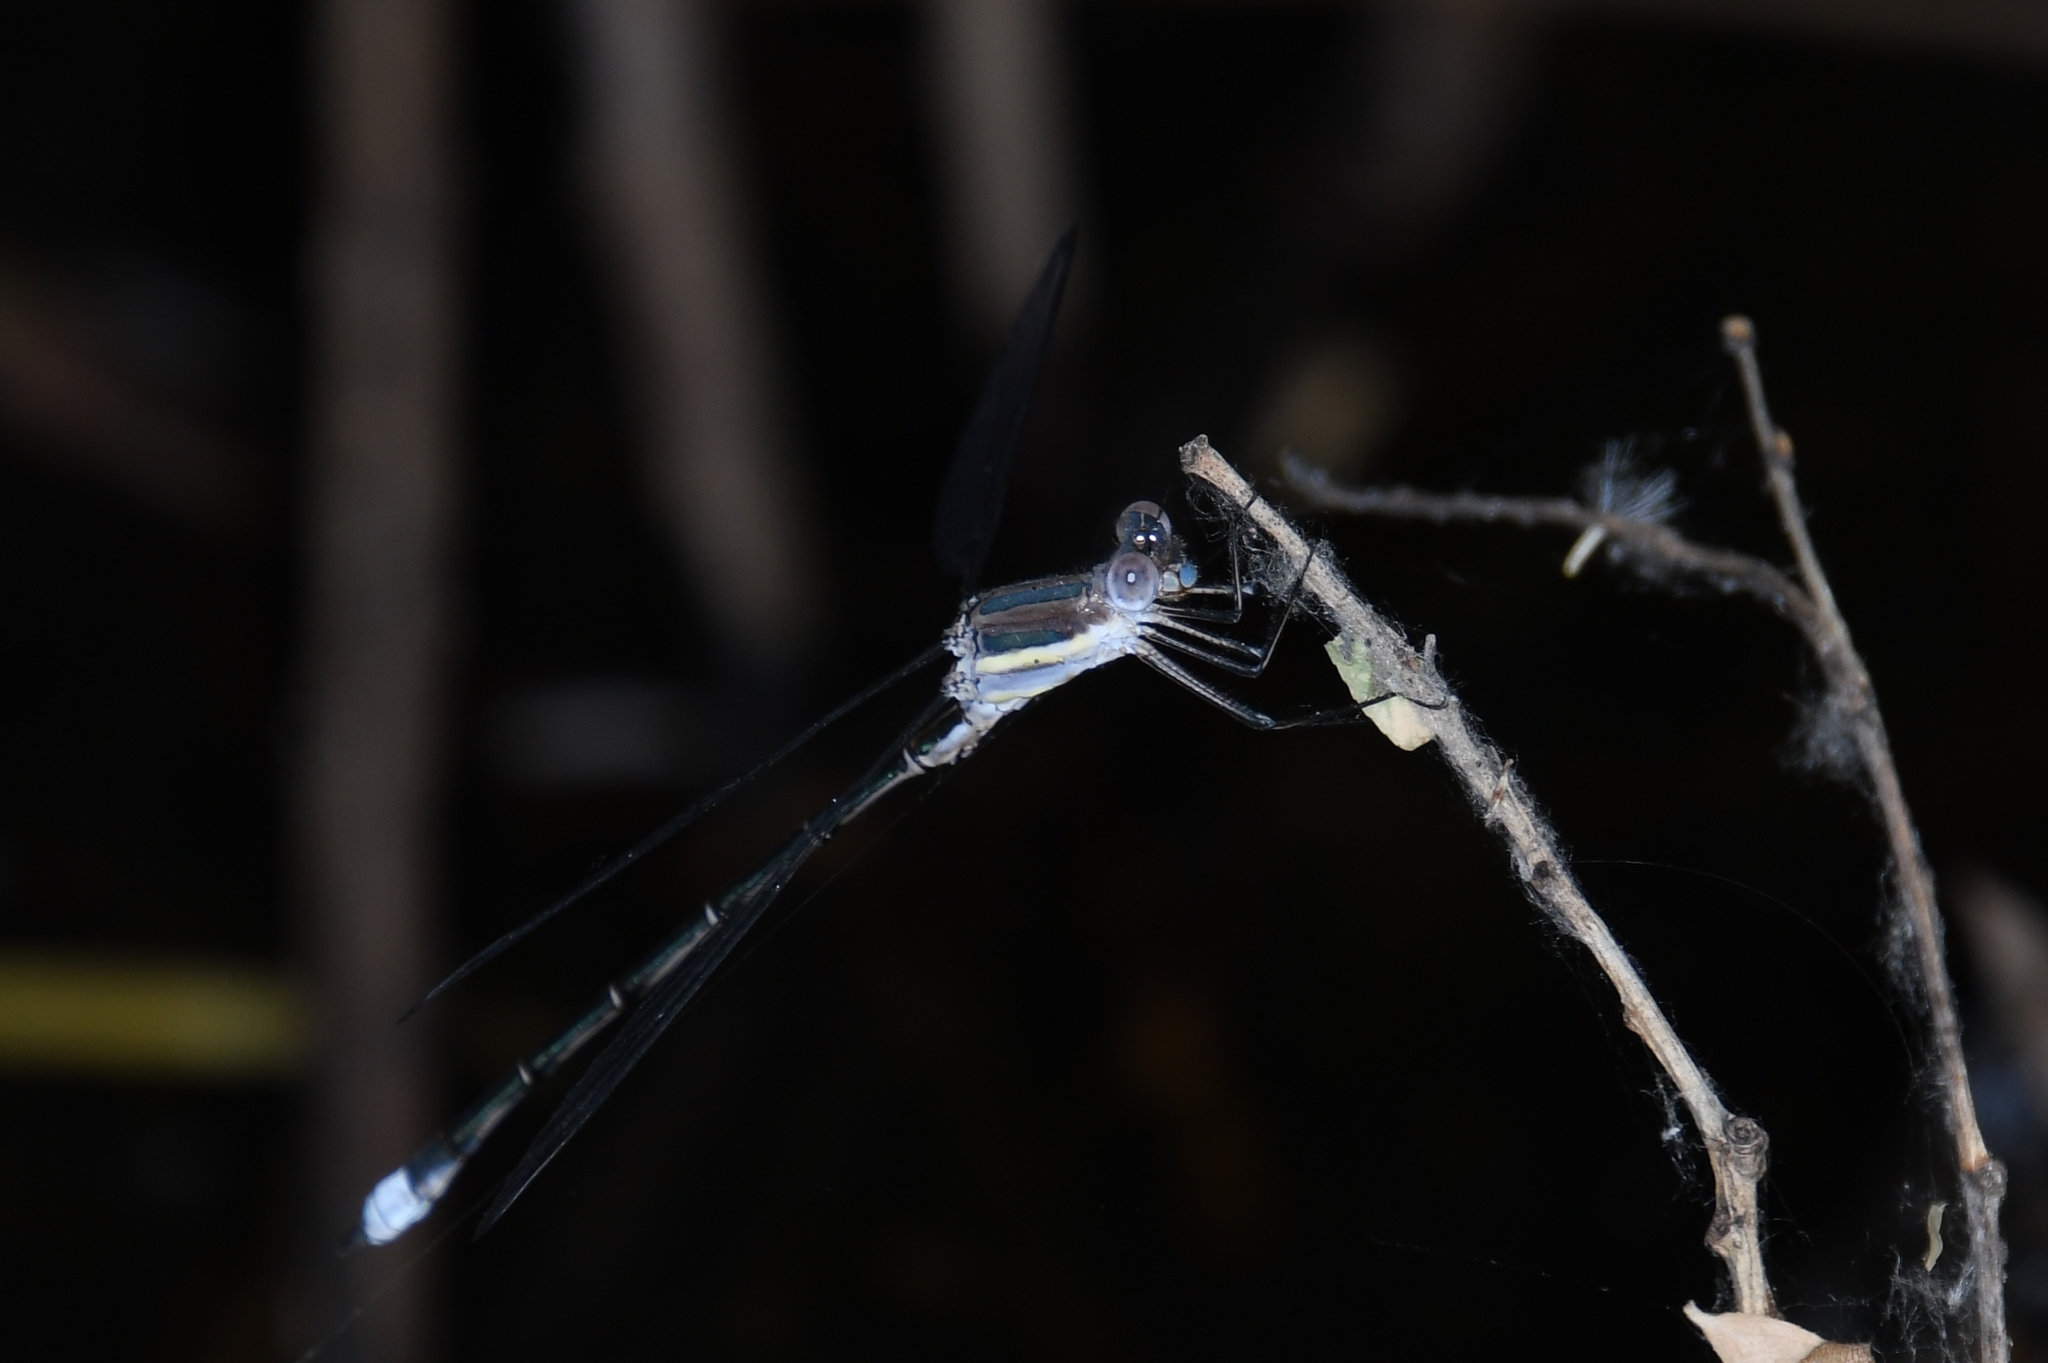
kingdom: Animalia
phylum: Arthropoda
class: Insecta
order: Odonata
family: Lestidae
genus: Archilestes
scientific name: Archilestes grandis
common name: Great spreadwing
